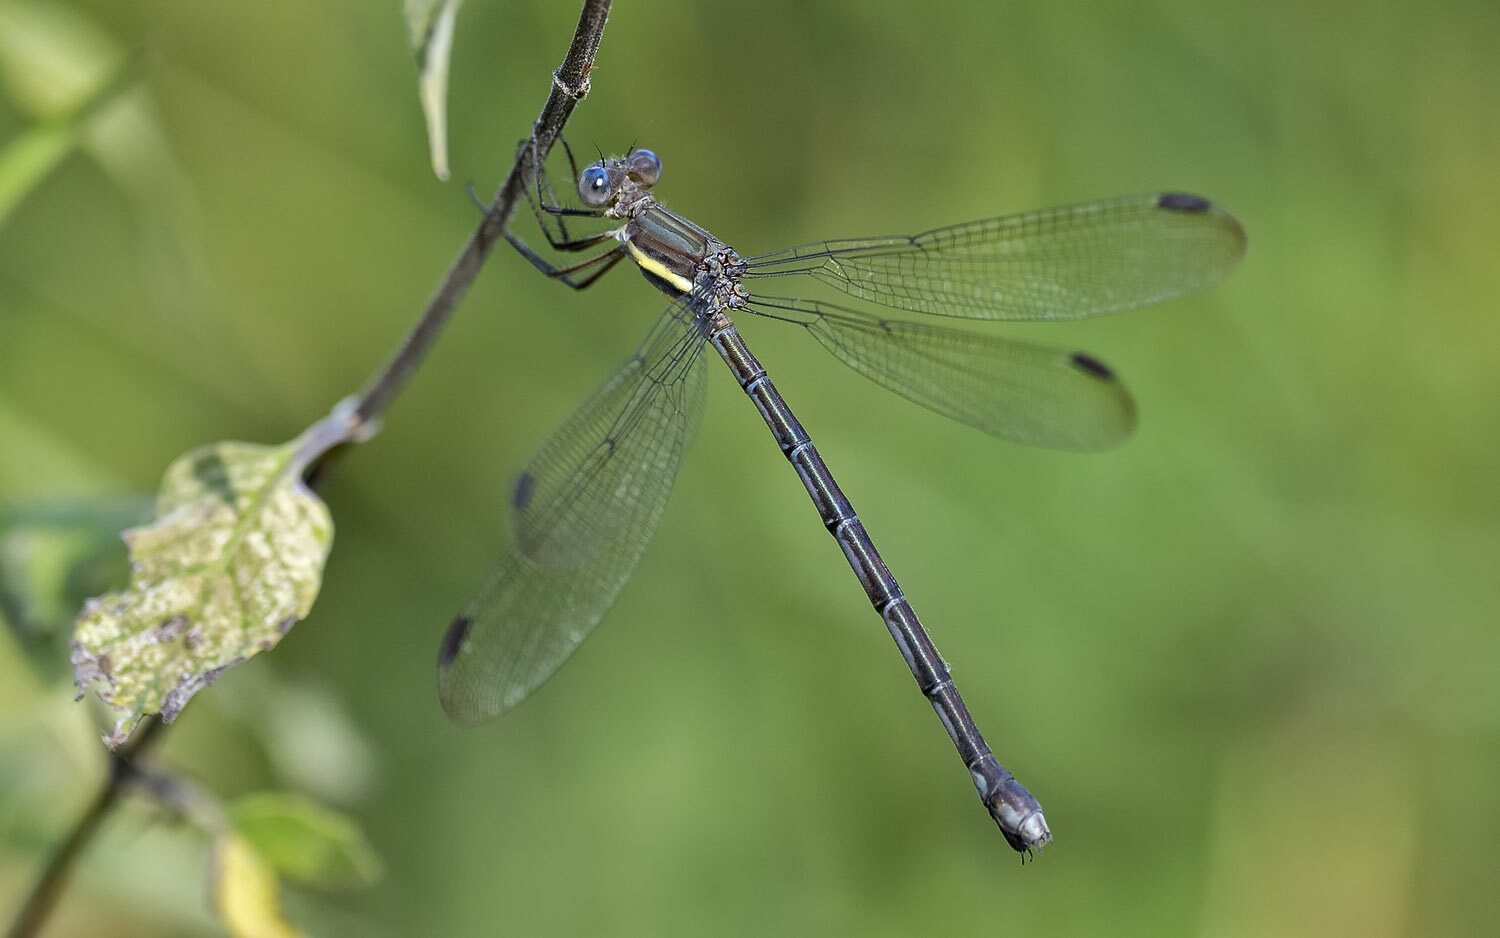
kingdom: Animalia
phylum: Arthropoda
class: Insecta
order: Odonata
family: Lestidae
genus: Archilestes
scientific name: Archilestes grandis
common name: Great spreadwing
